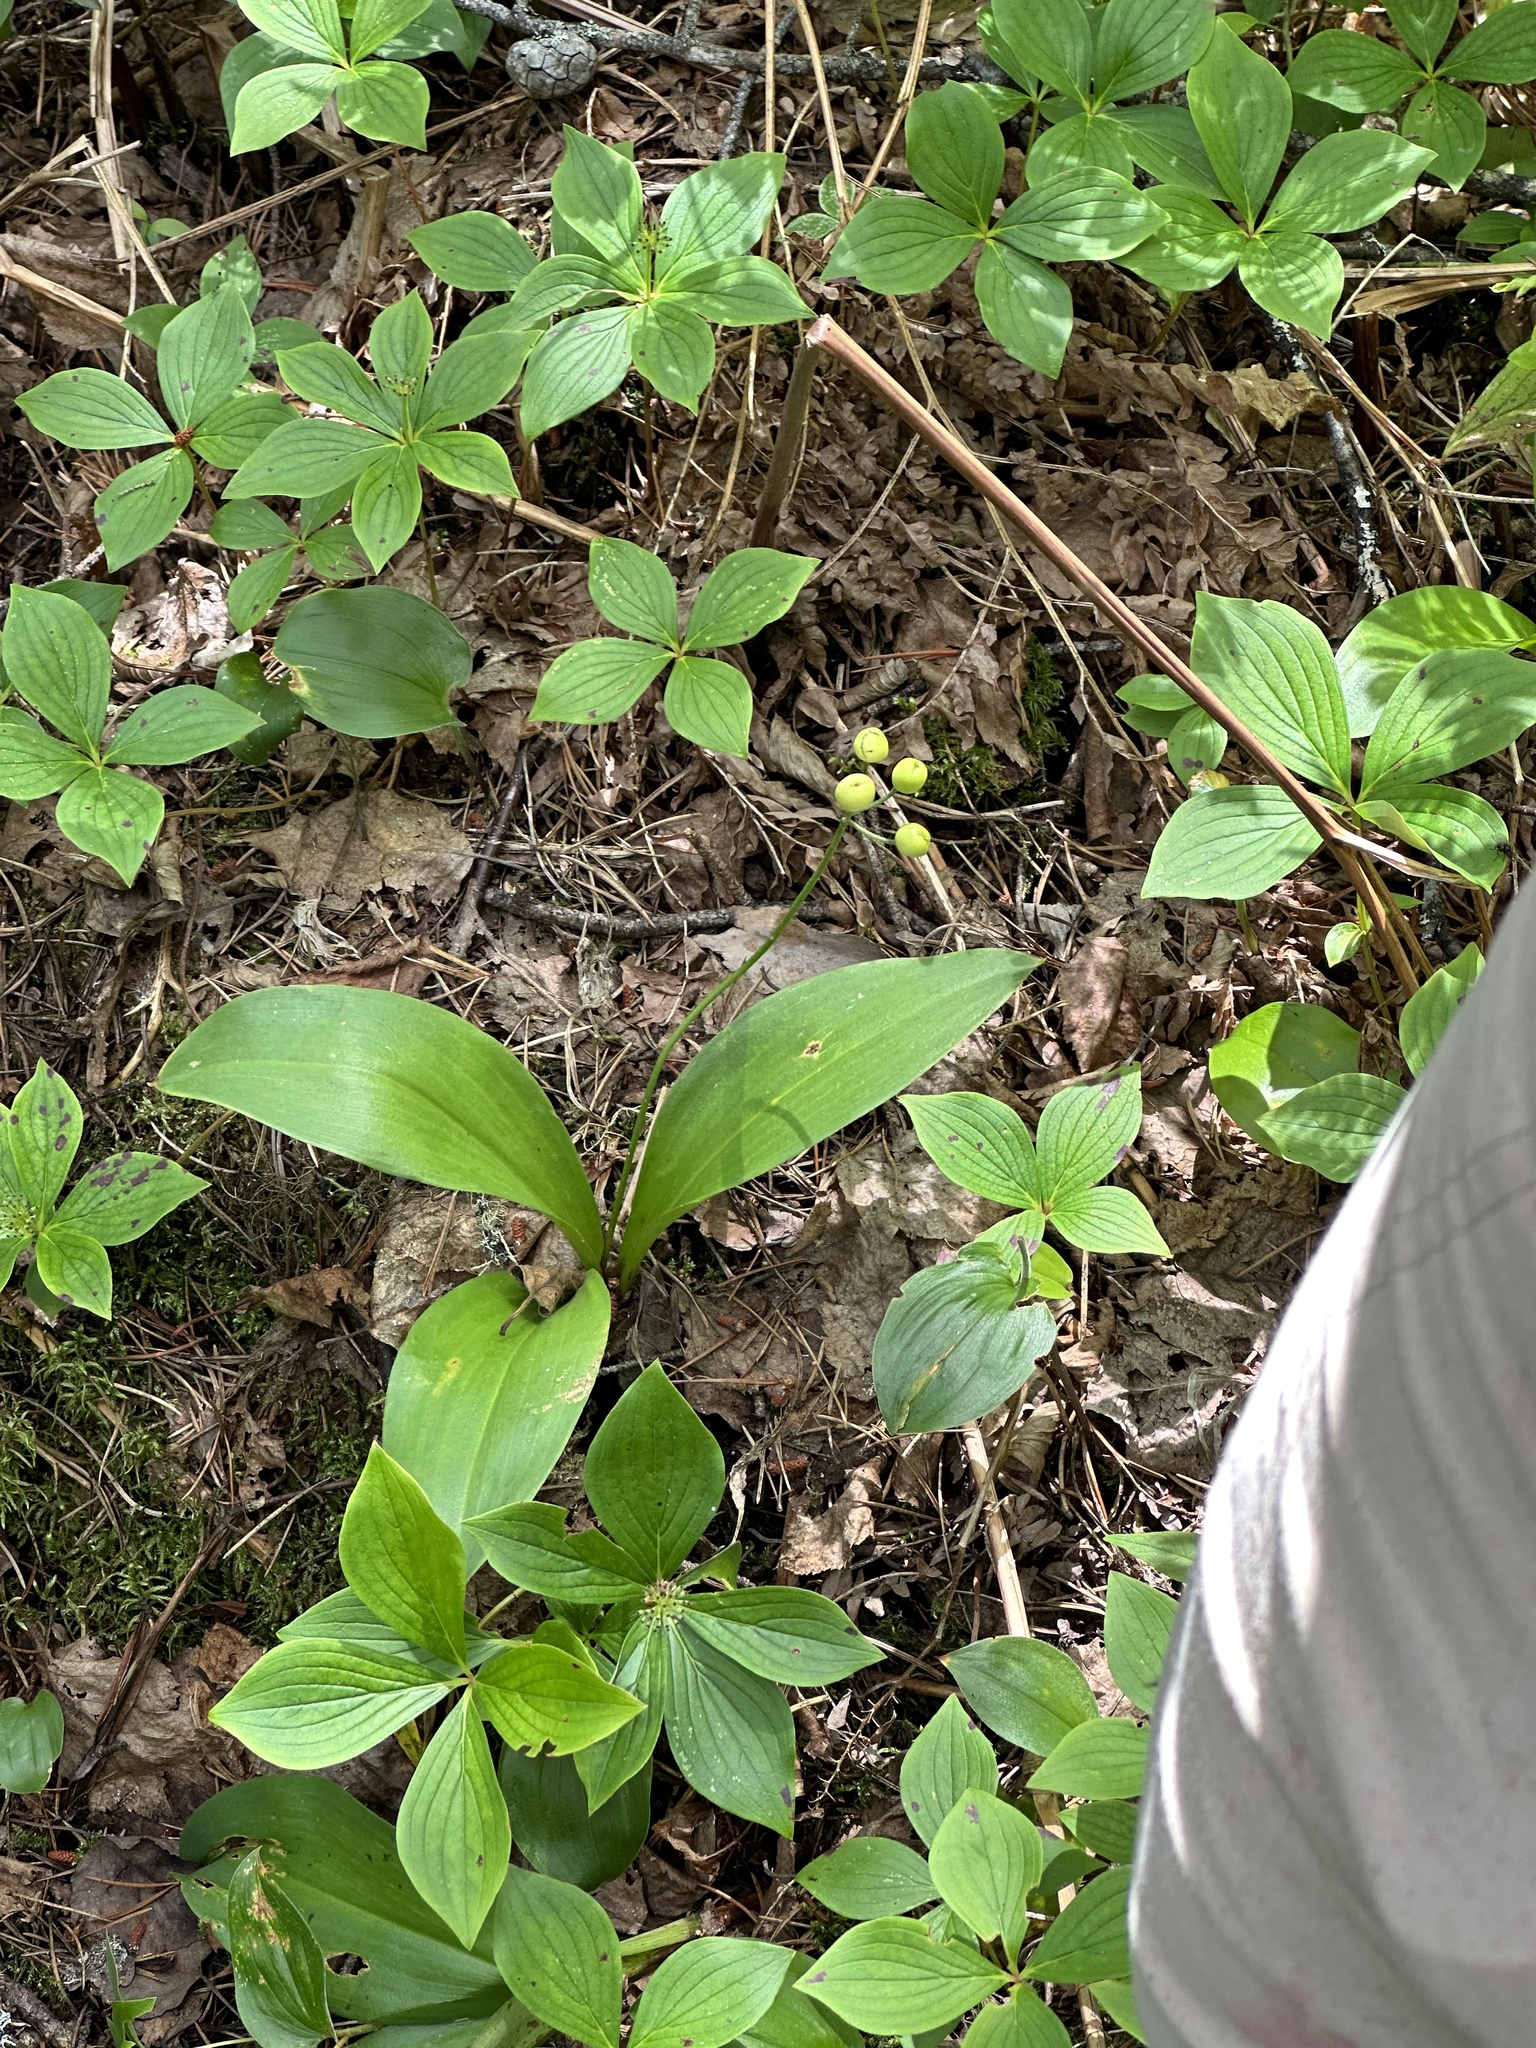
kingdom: Plantae
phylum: Tracheophyta
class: Liliopsida
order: Liliales
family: Liliaceae
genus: Clintonia
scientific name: Clintonia borealis
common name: Yellow clintonia
